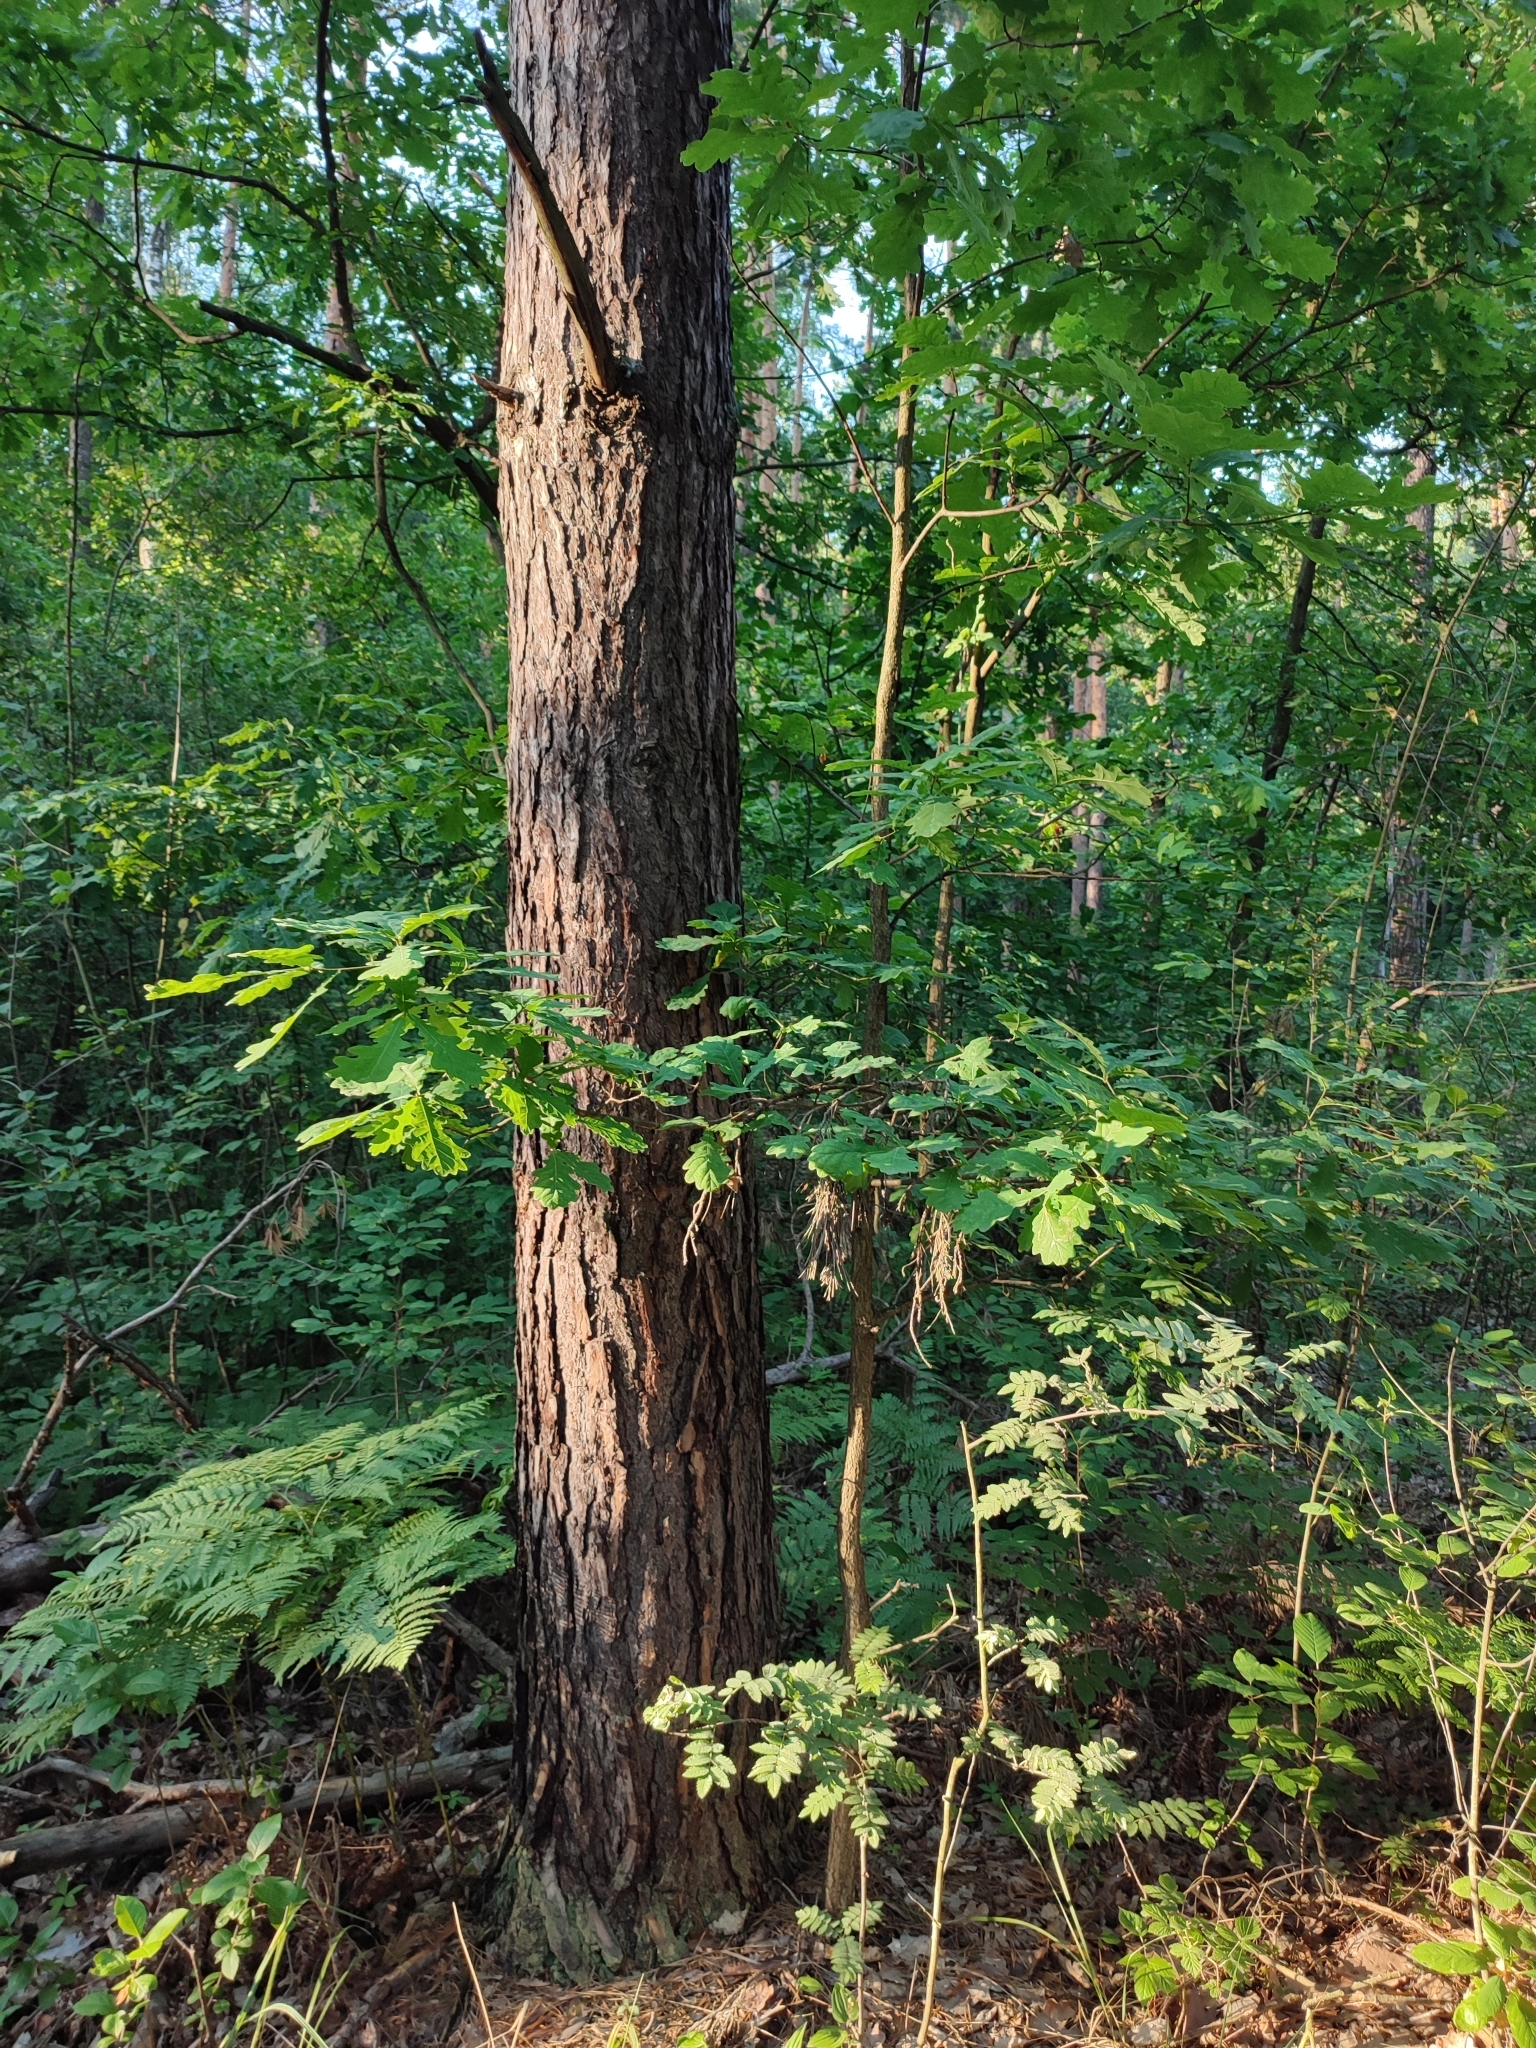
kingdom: Plantae
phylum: Tracheophyta
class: Magnoliopsida
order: Fagales
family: Fagaceae
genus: Quercus
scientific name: Quercus robur
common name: Pedunculate oak
